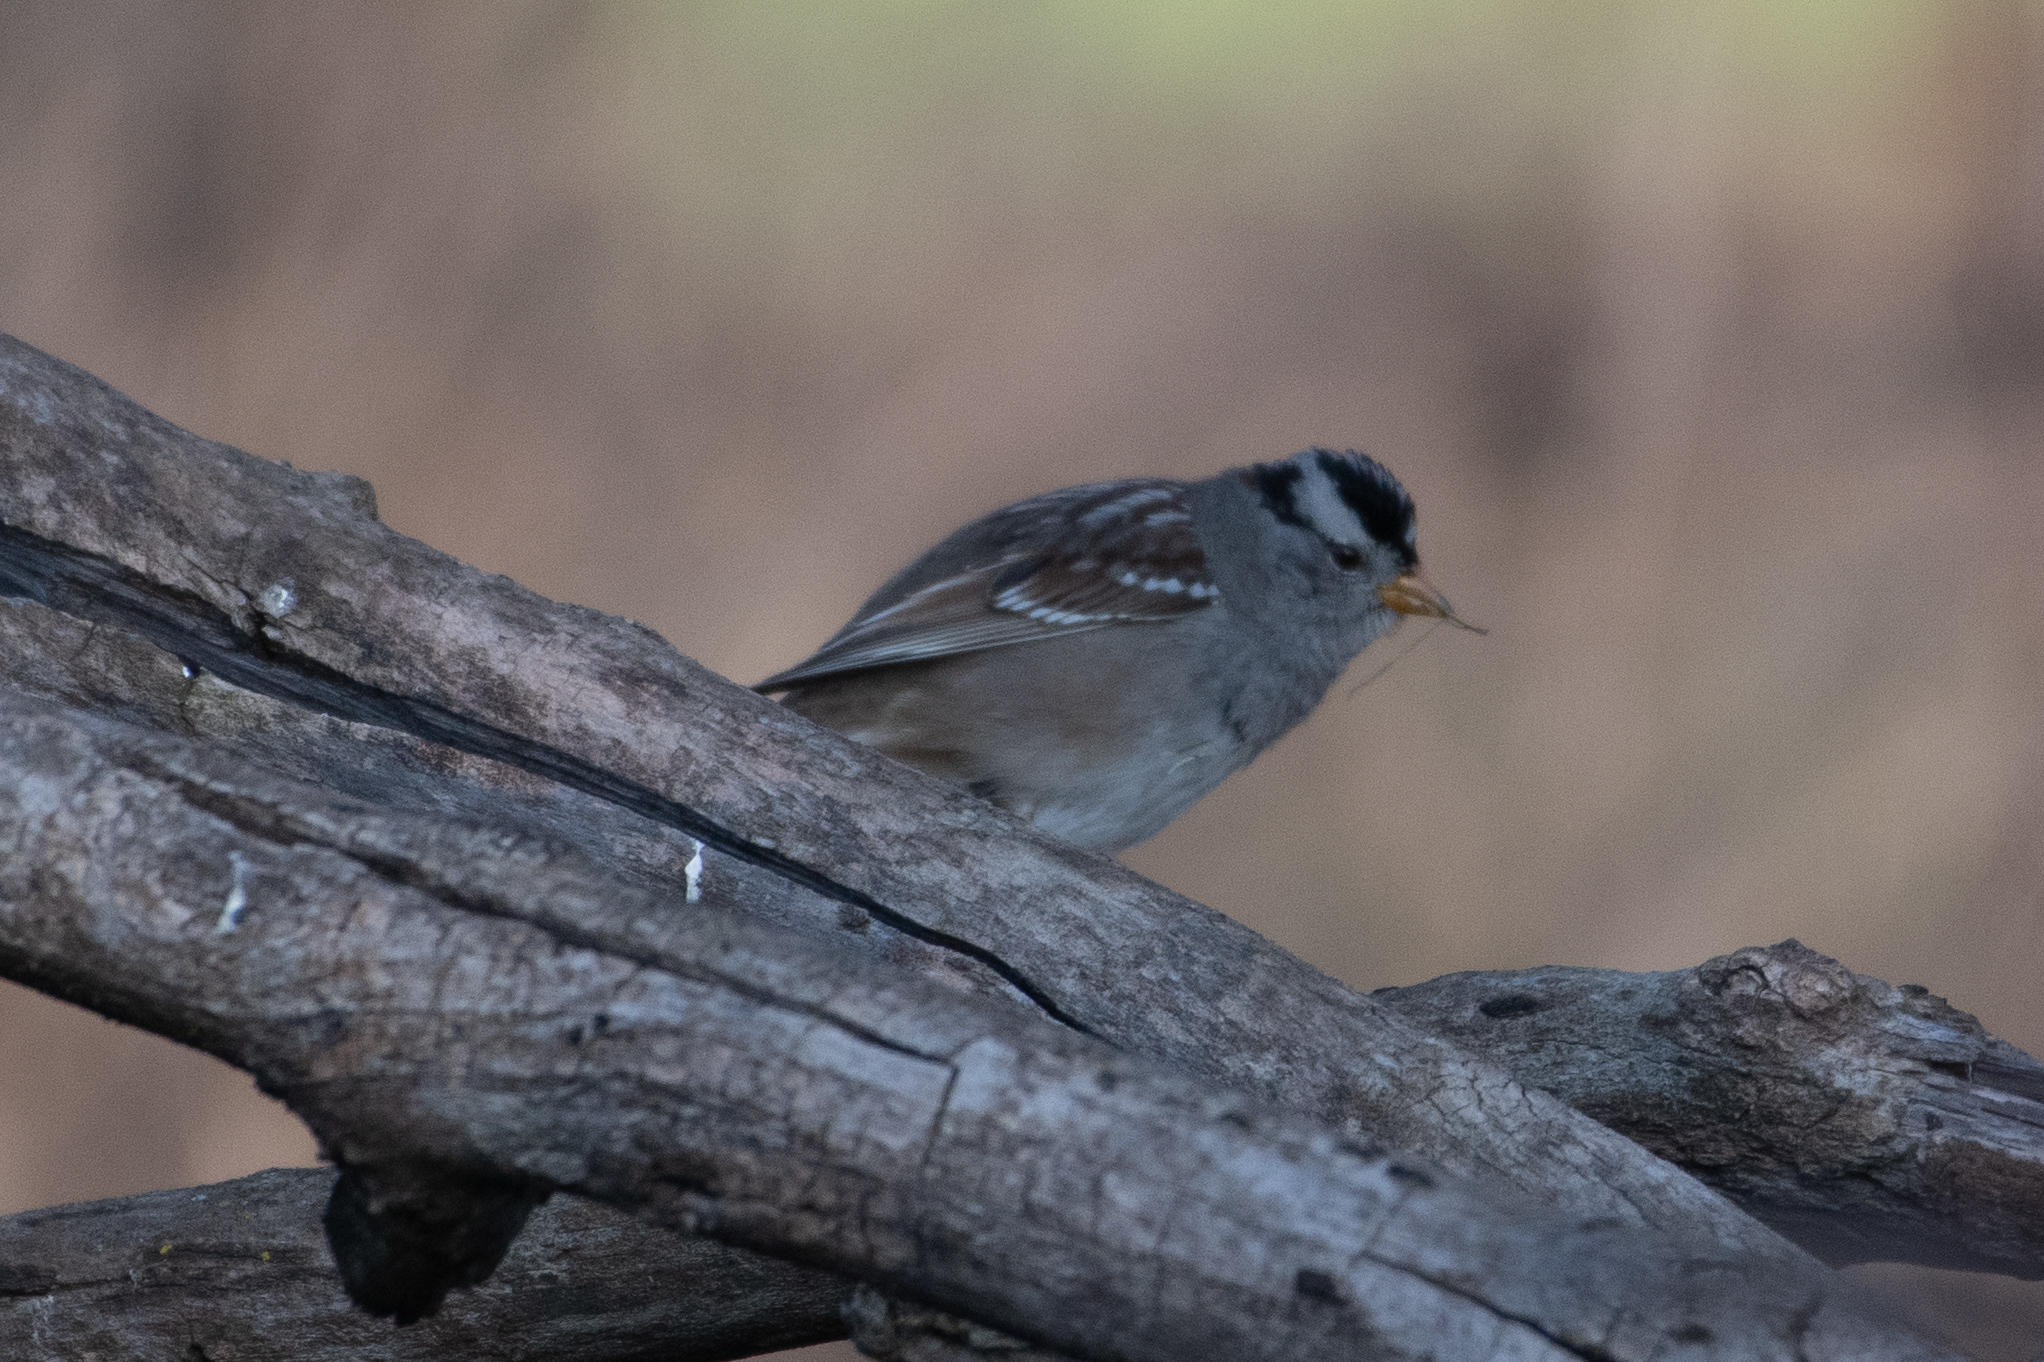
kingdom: Animalia
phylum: Chordata
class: Aves
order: Passeriformes
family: Passerellidae
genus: Zonotrichia
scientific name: Zonotrichia leucophrys
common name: White-crowned sparrow
